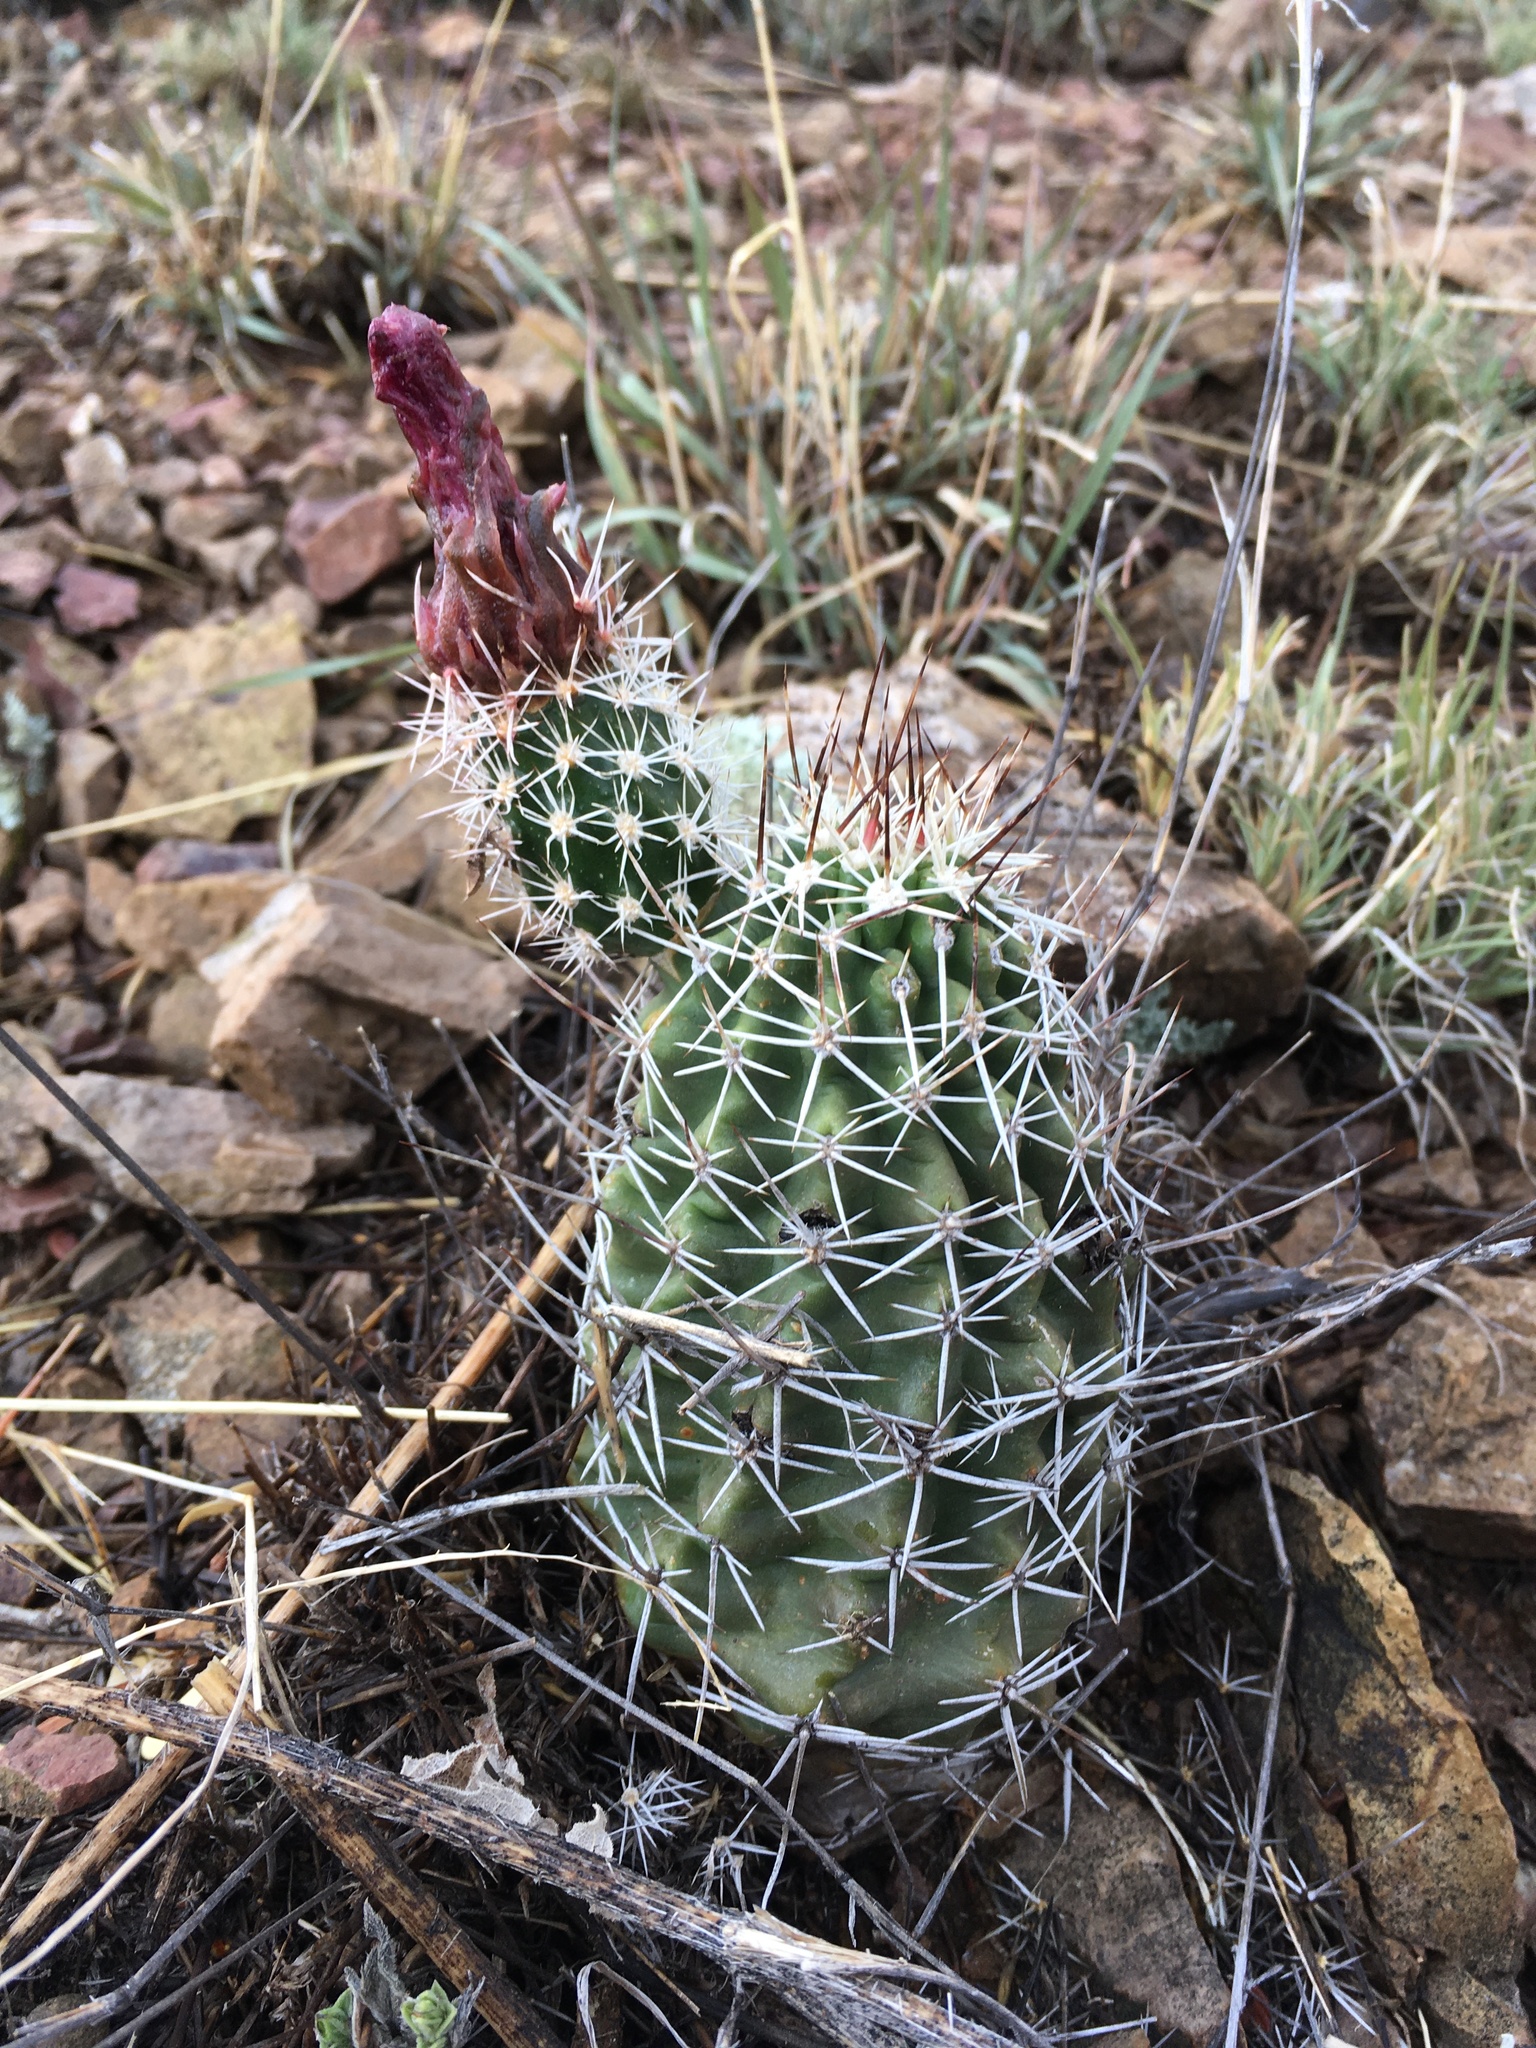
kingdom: Plantae
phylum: Tracheophyta
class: Magnoliopsida
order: Caryophyllales
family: Cactaceae
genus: Echinocereus
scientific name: Echinocereus fendleri
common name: Fendler's hedgehog cactus
